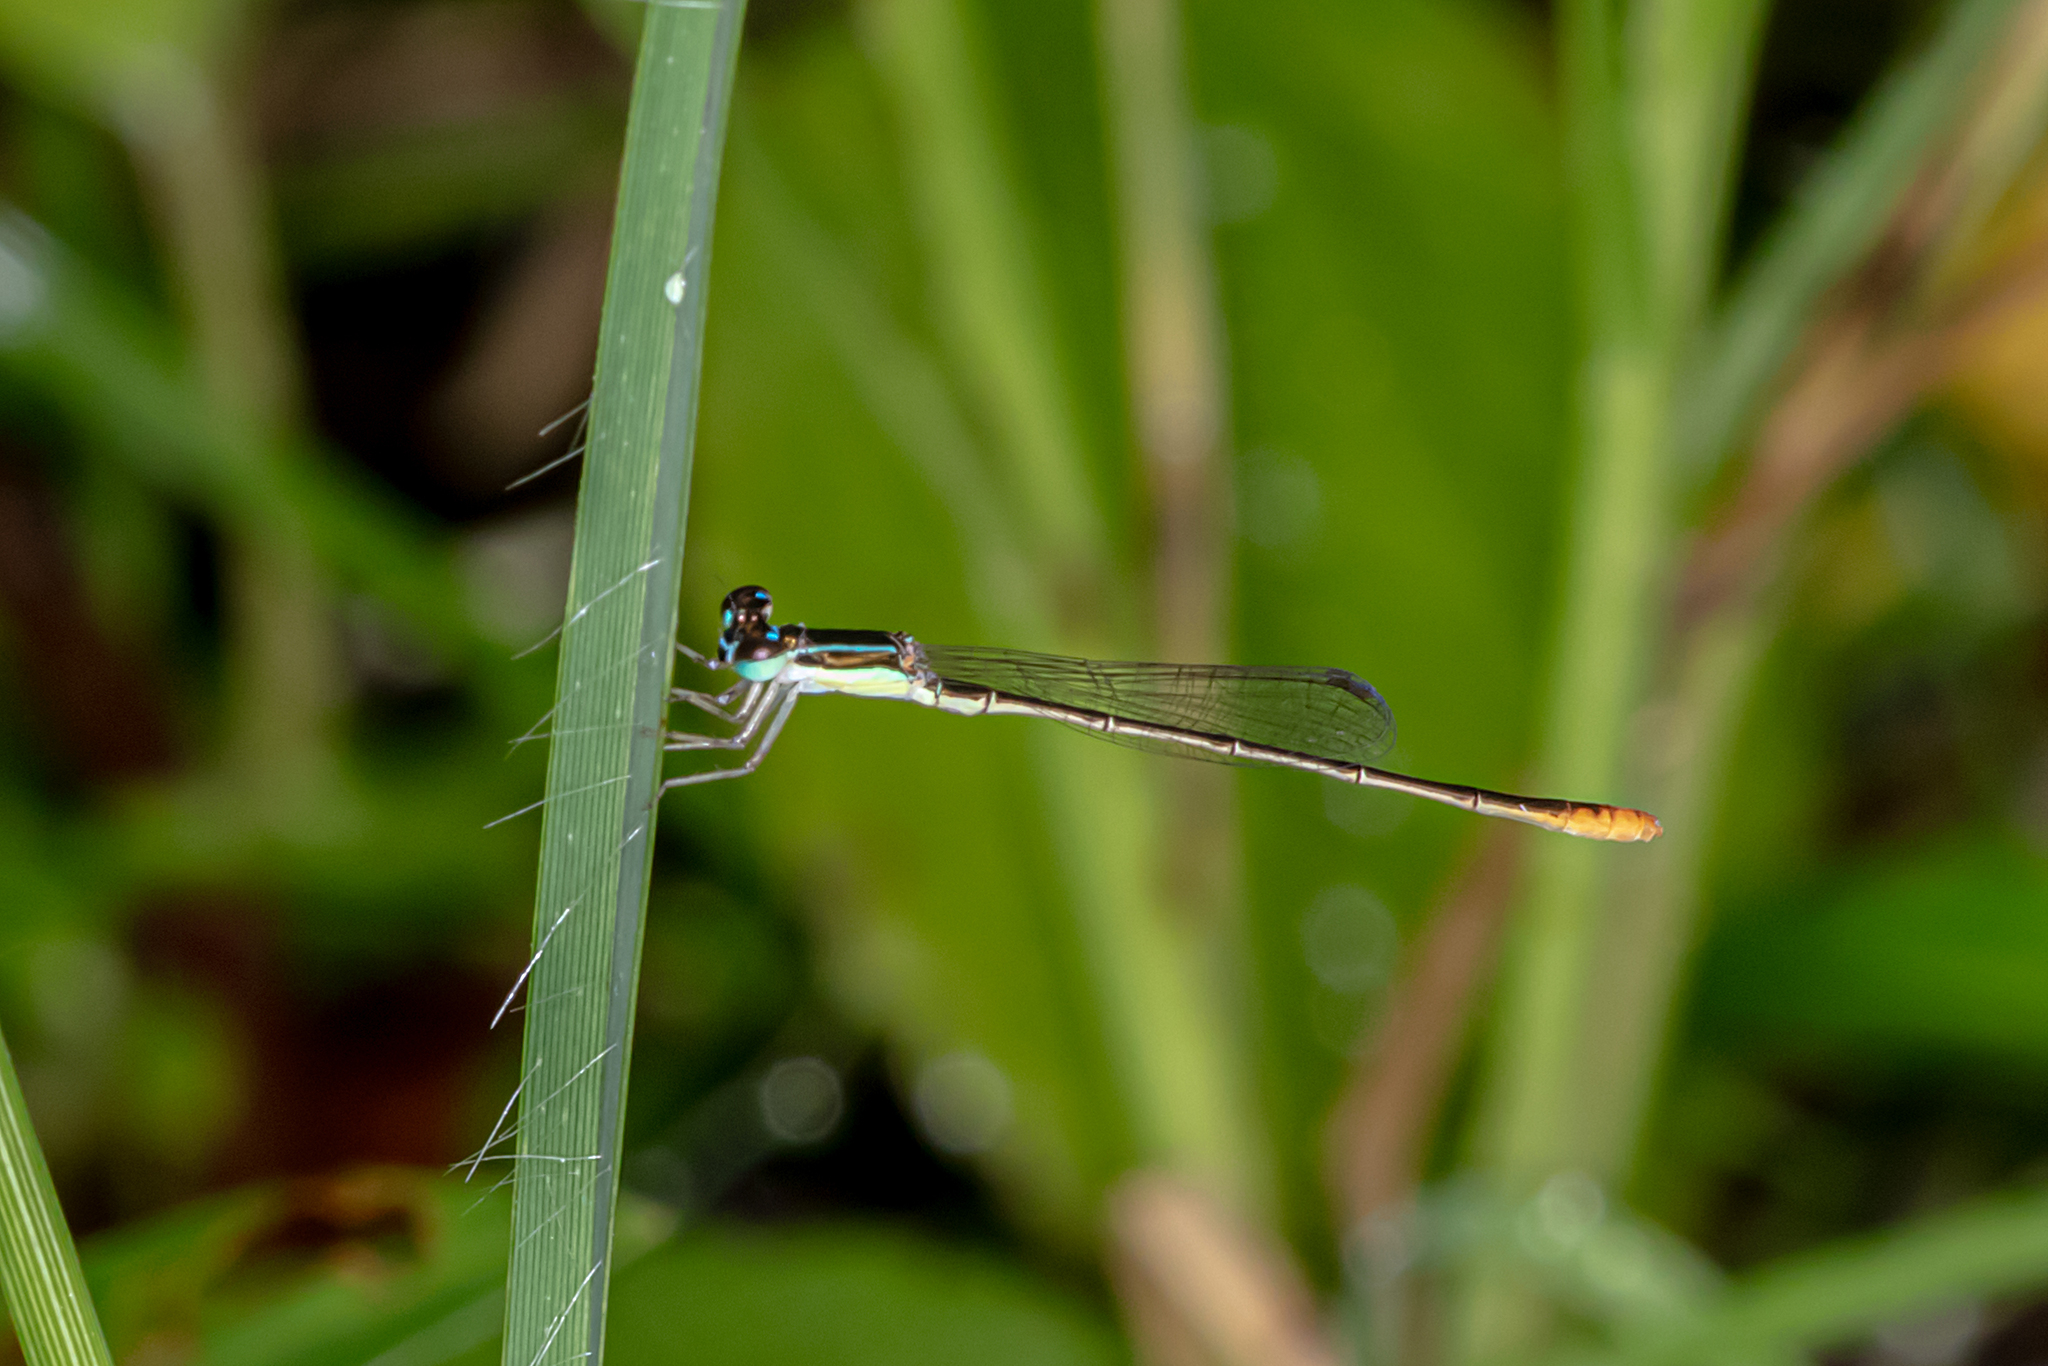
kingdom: Animalia
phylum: Arthropoda
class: Insecta
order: Odonata
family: Coenagrionidae
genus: Agriocnemis
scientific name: Agriocnemis pygmaea
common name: Pygmy wisp
